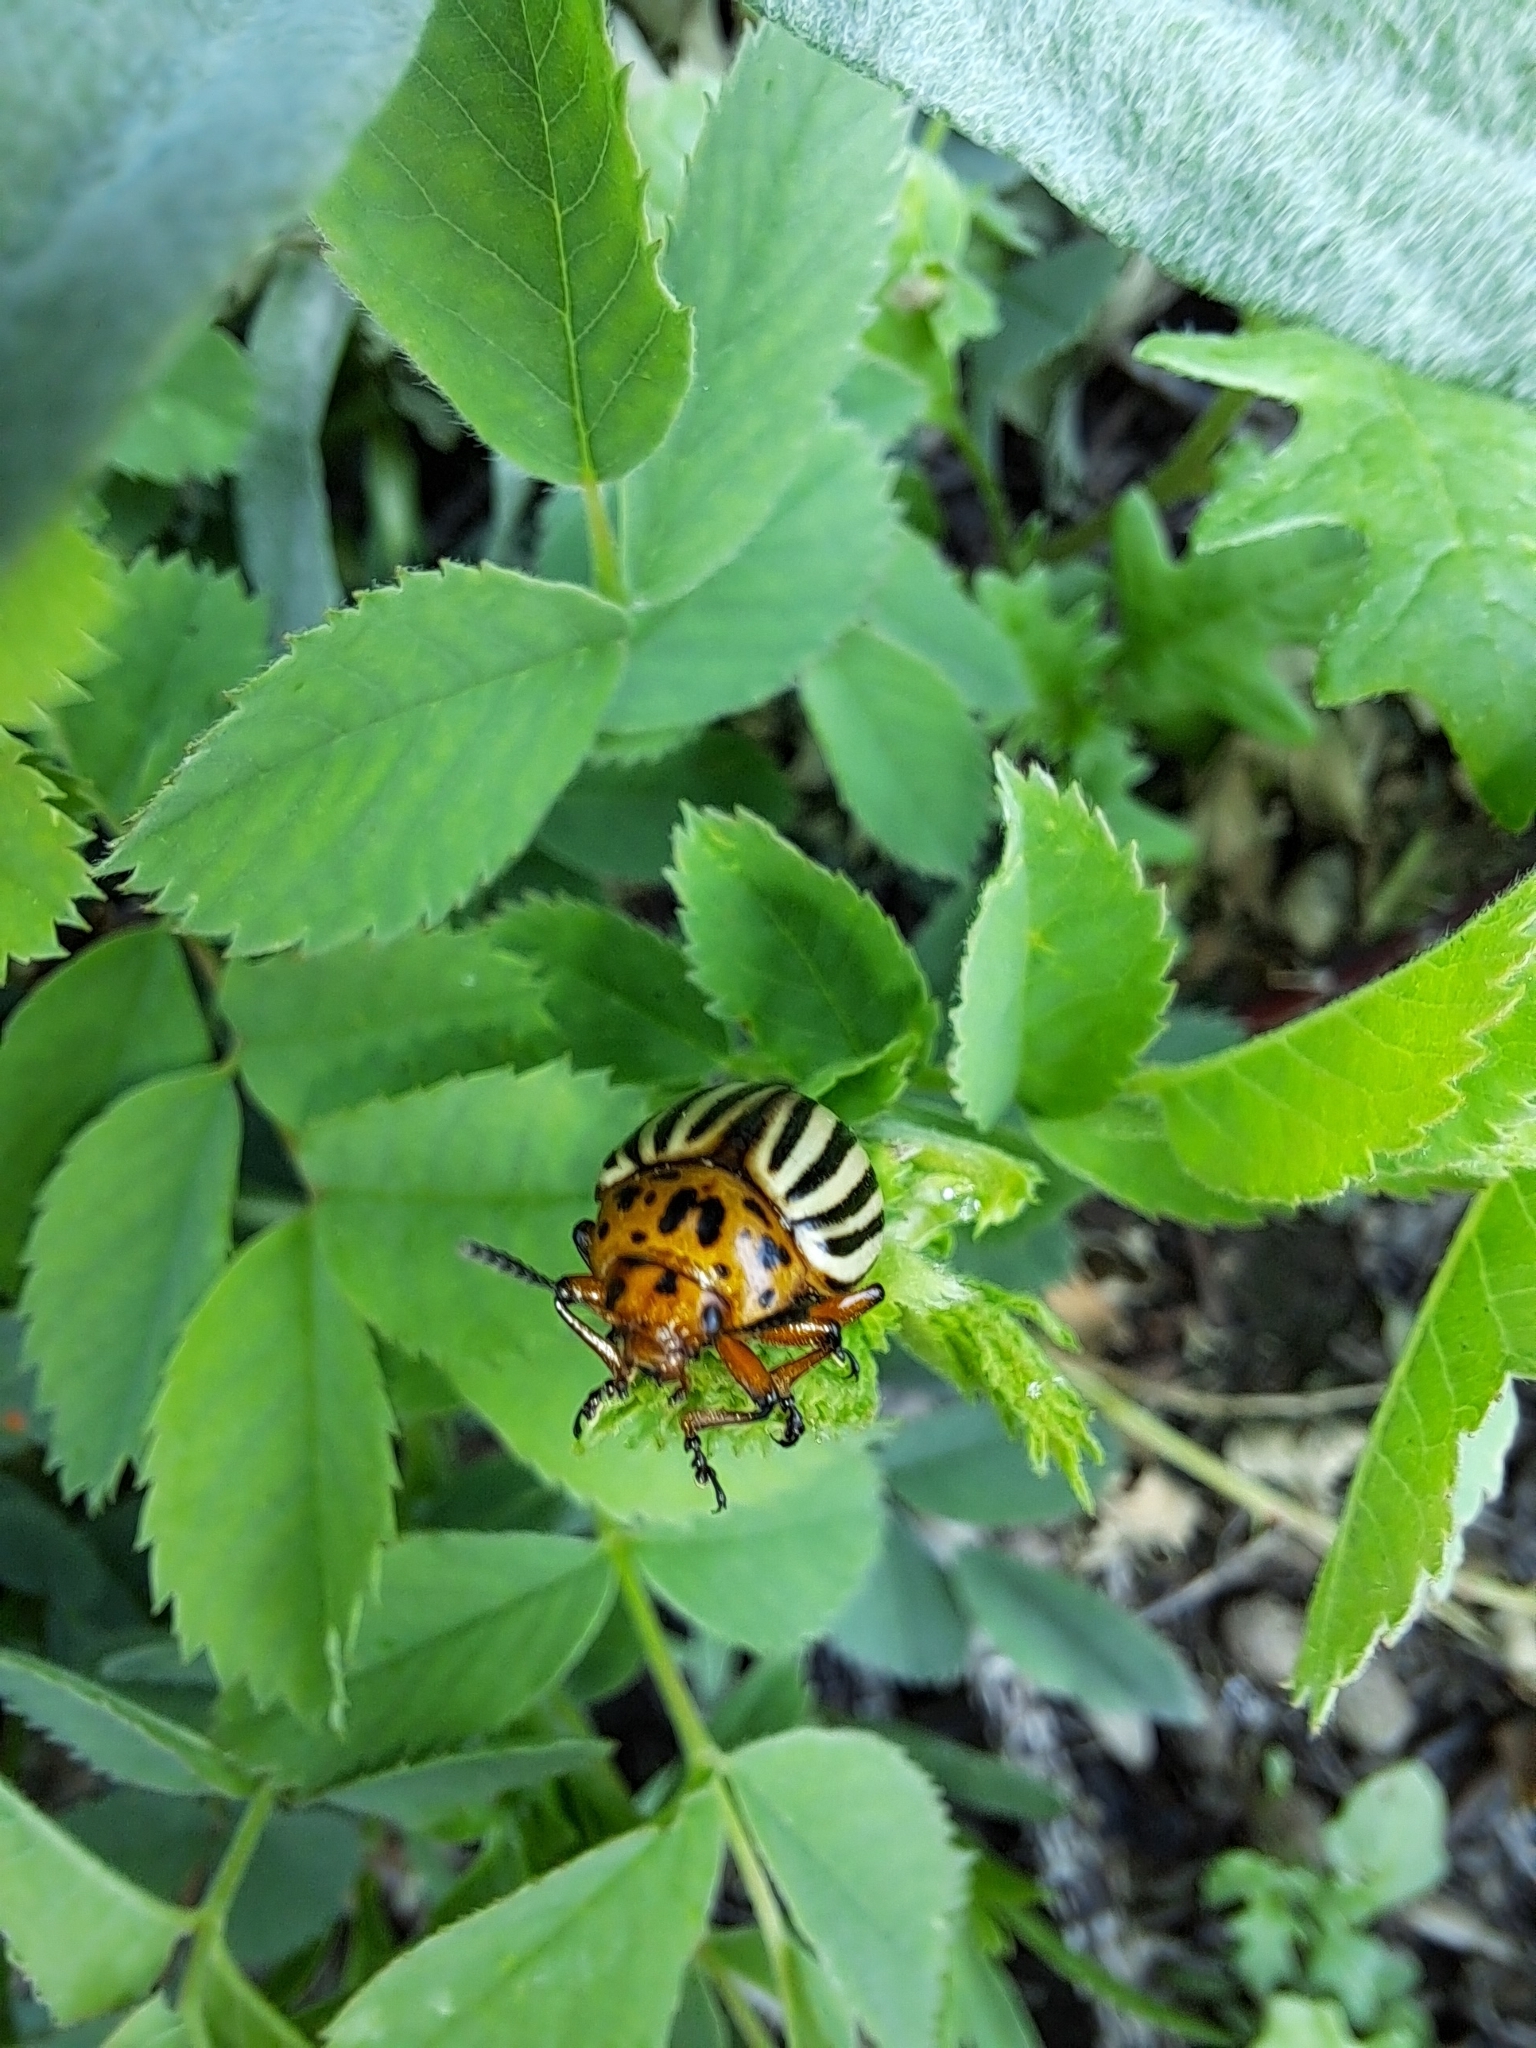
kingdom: Animalia
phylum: Arthropoda
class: Insecta
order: Coleoptera
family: Chrysomelidae
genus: Leptinotarsa
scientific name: Leptinotarsa decemlineata
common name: Colorado potato beetle
